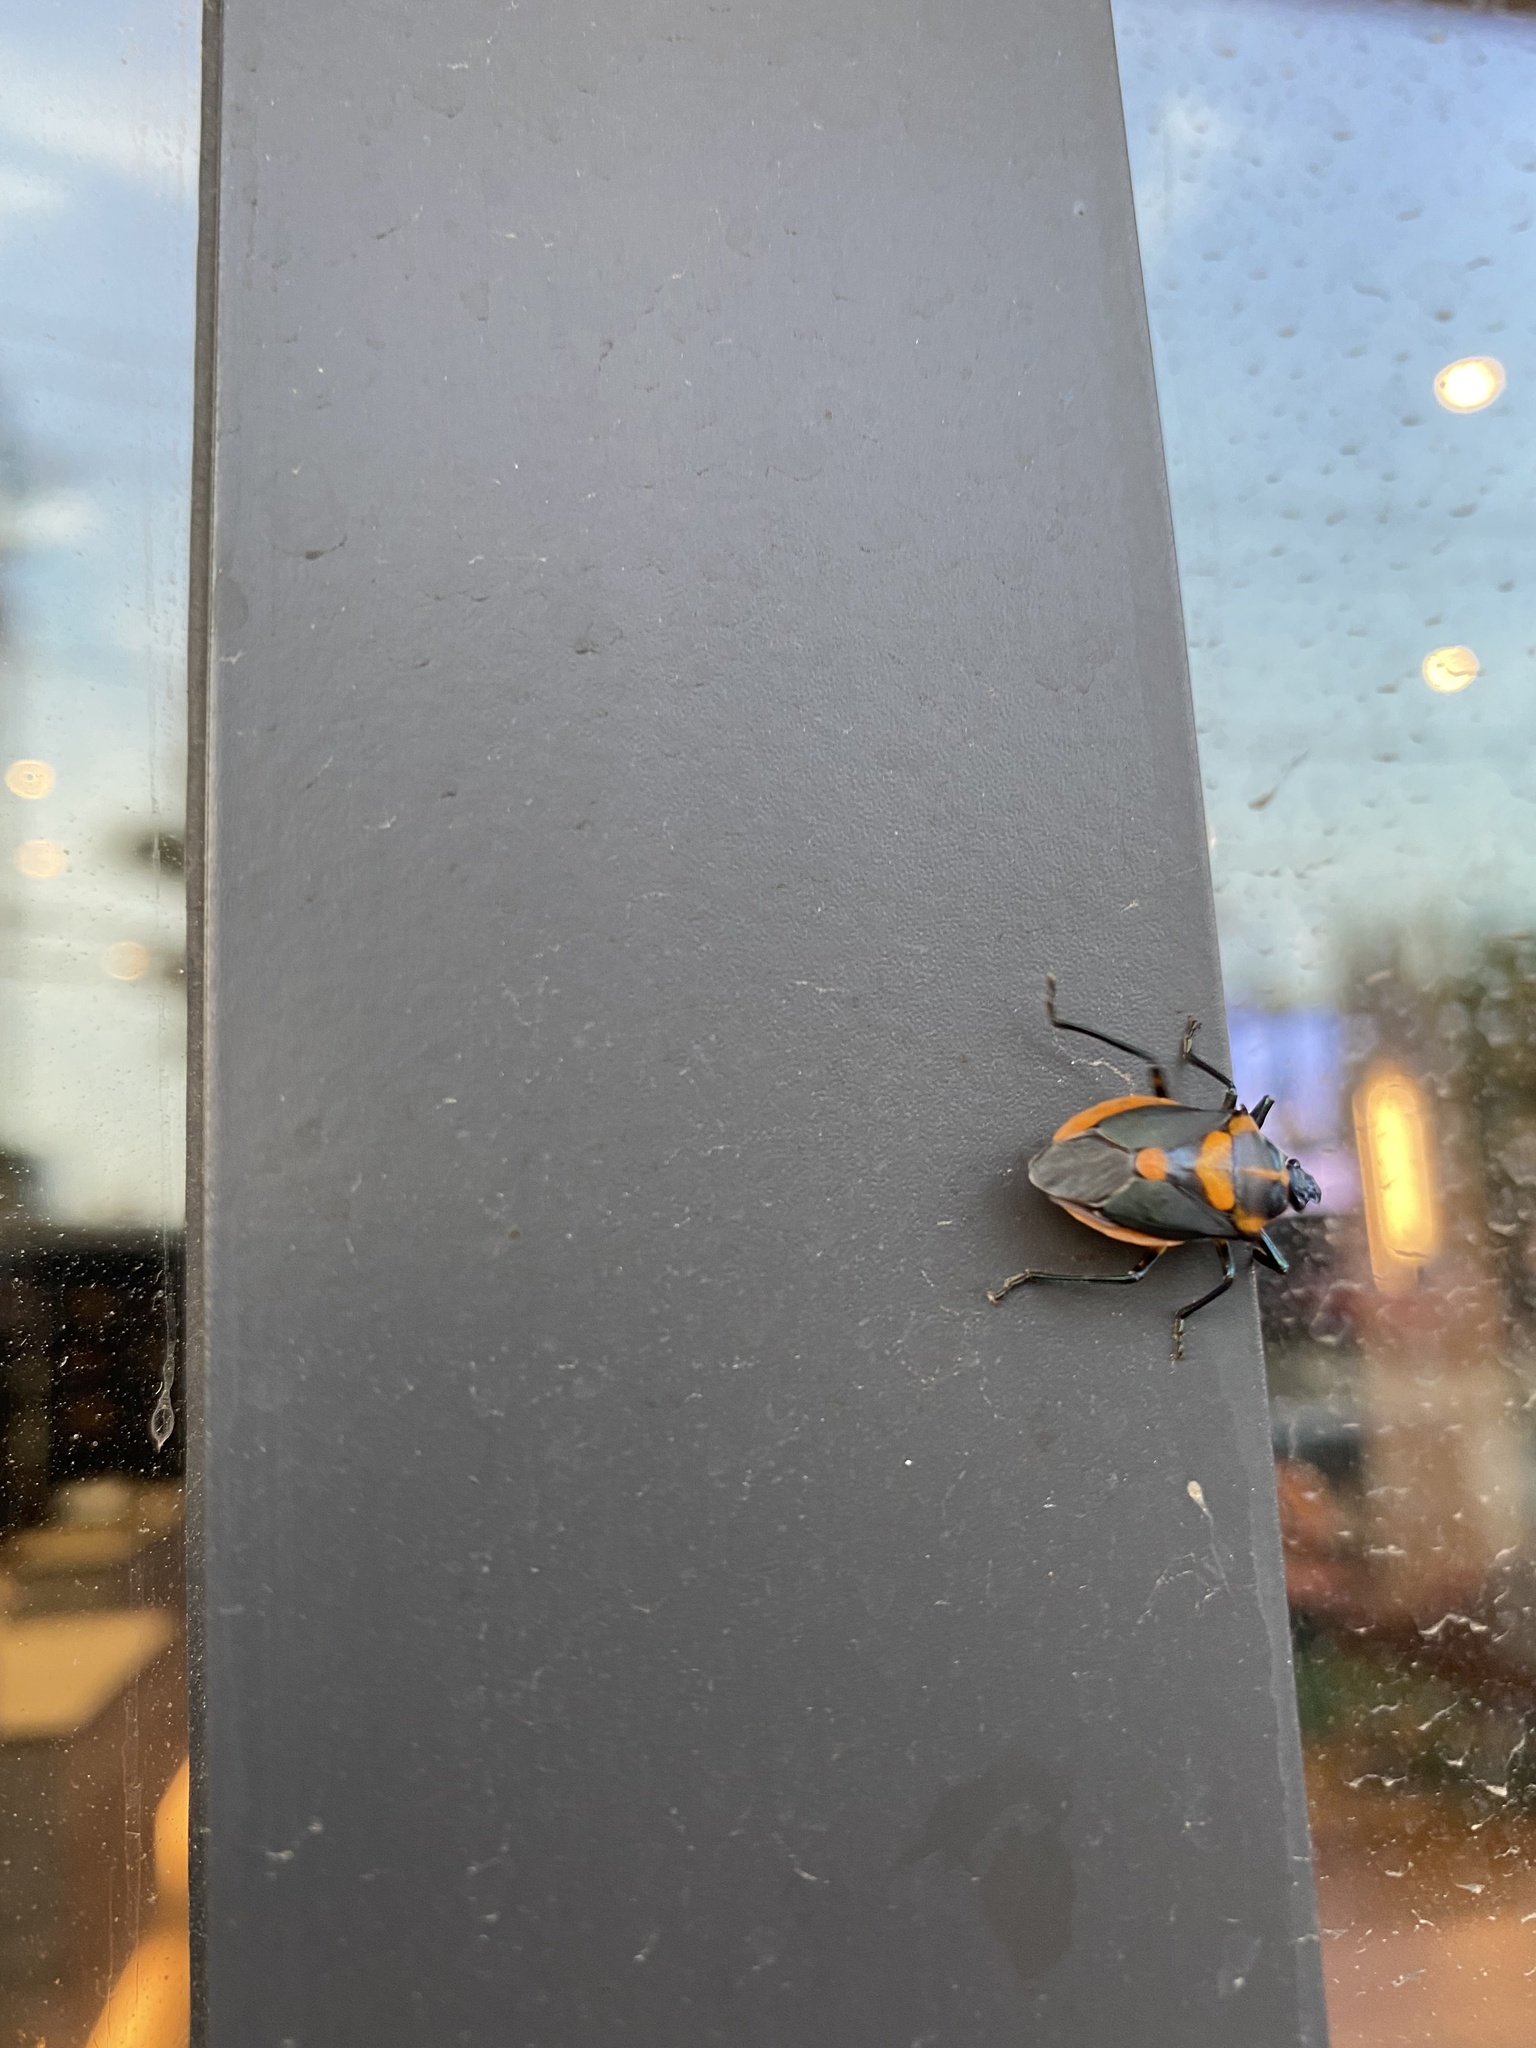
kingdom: Animalia
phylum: Arthropoda
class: Insecta
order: Hemiptera
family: Pentatomidae
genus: Euthyrhynchus
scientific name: Euthyrhynchus floridanus
